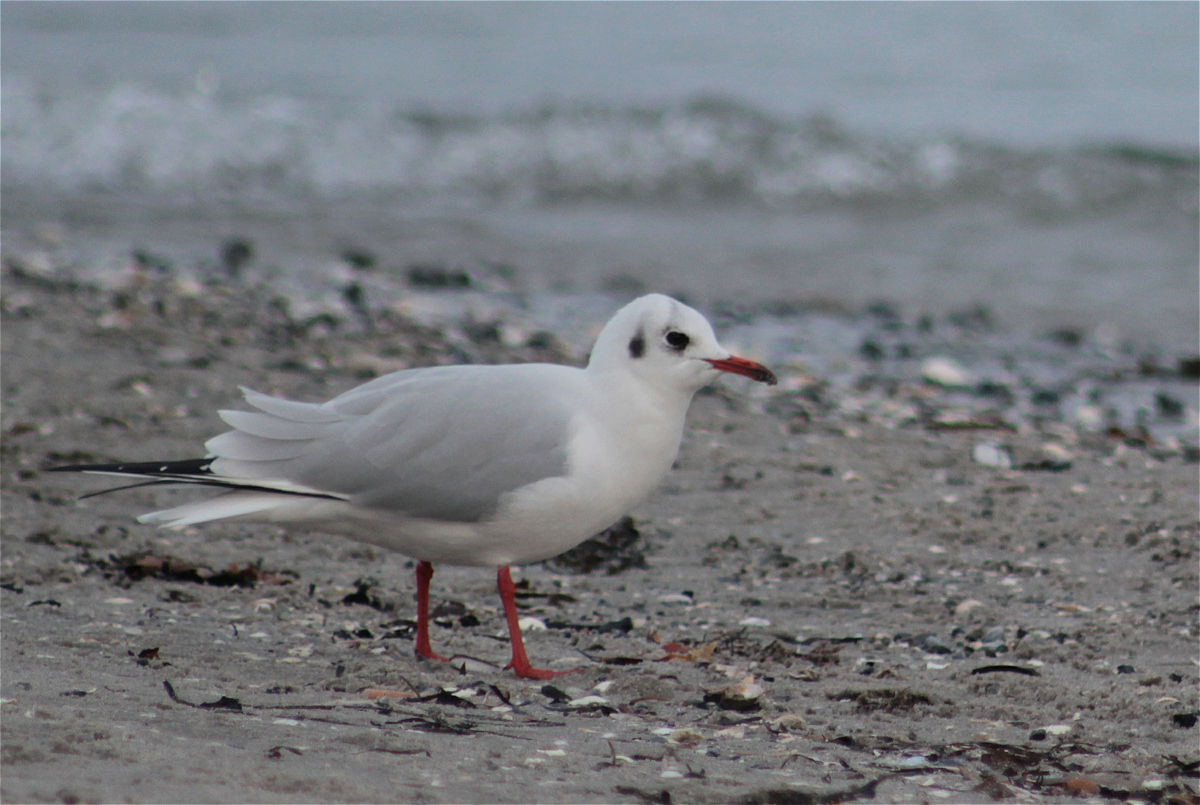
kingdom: Animalia
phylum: Chordata
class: Aves
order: Charadriiformes
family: Laridae
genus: Chroicocephalus
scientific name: Chroicocephalus ridibundus
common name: Black-headed gull
